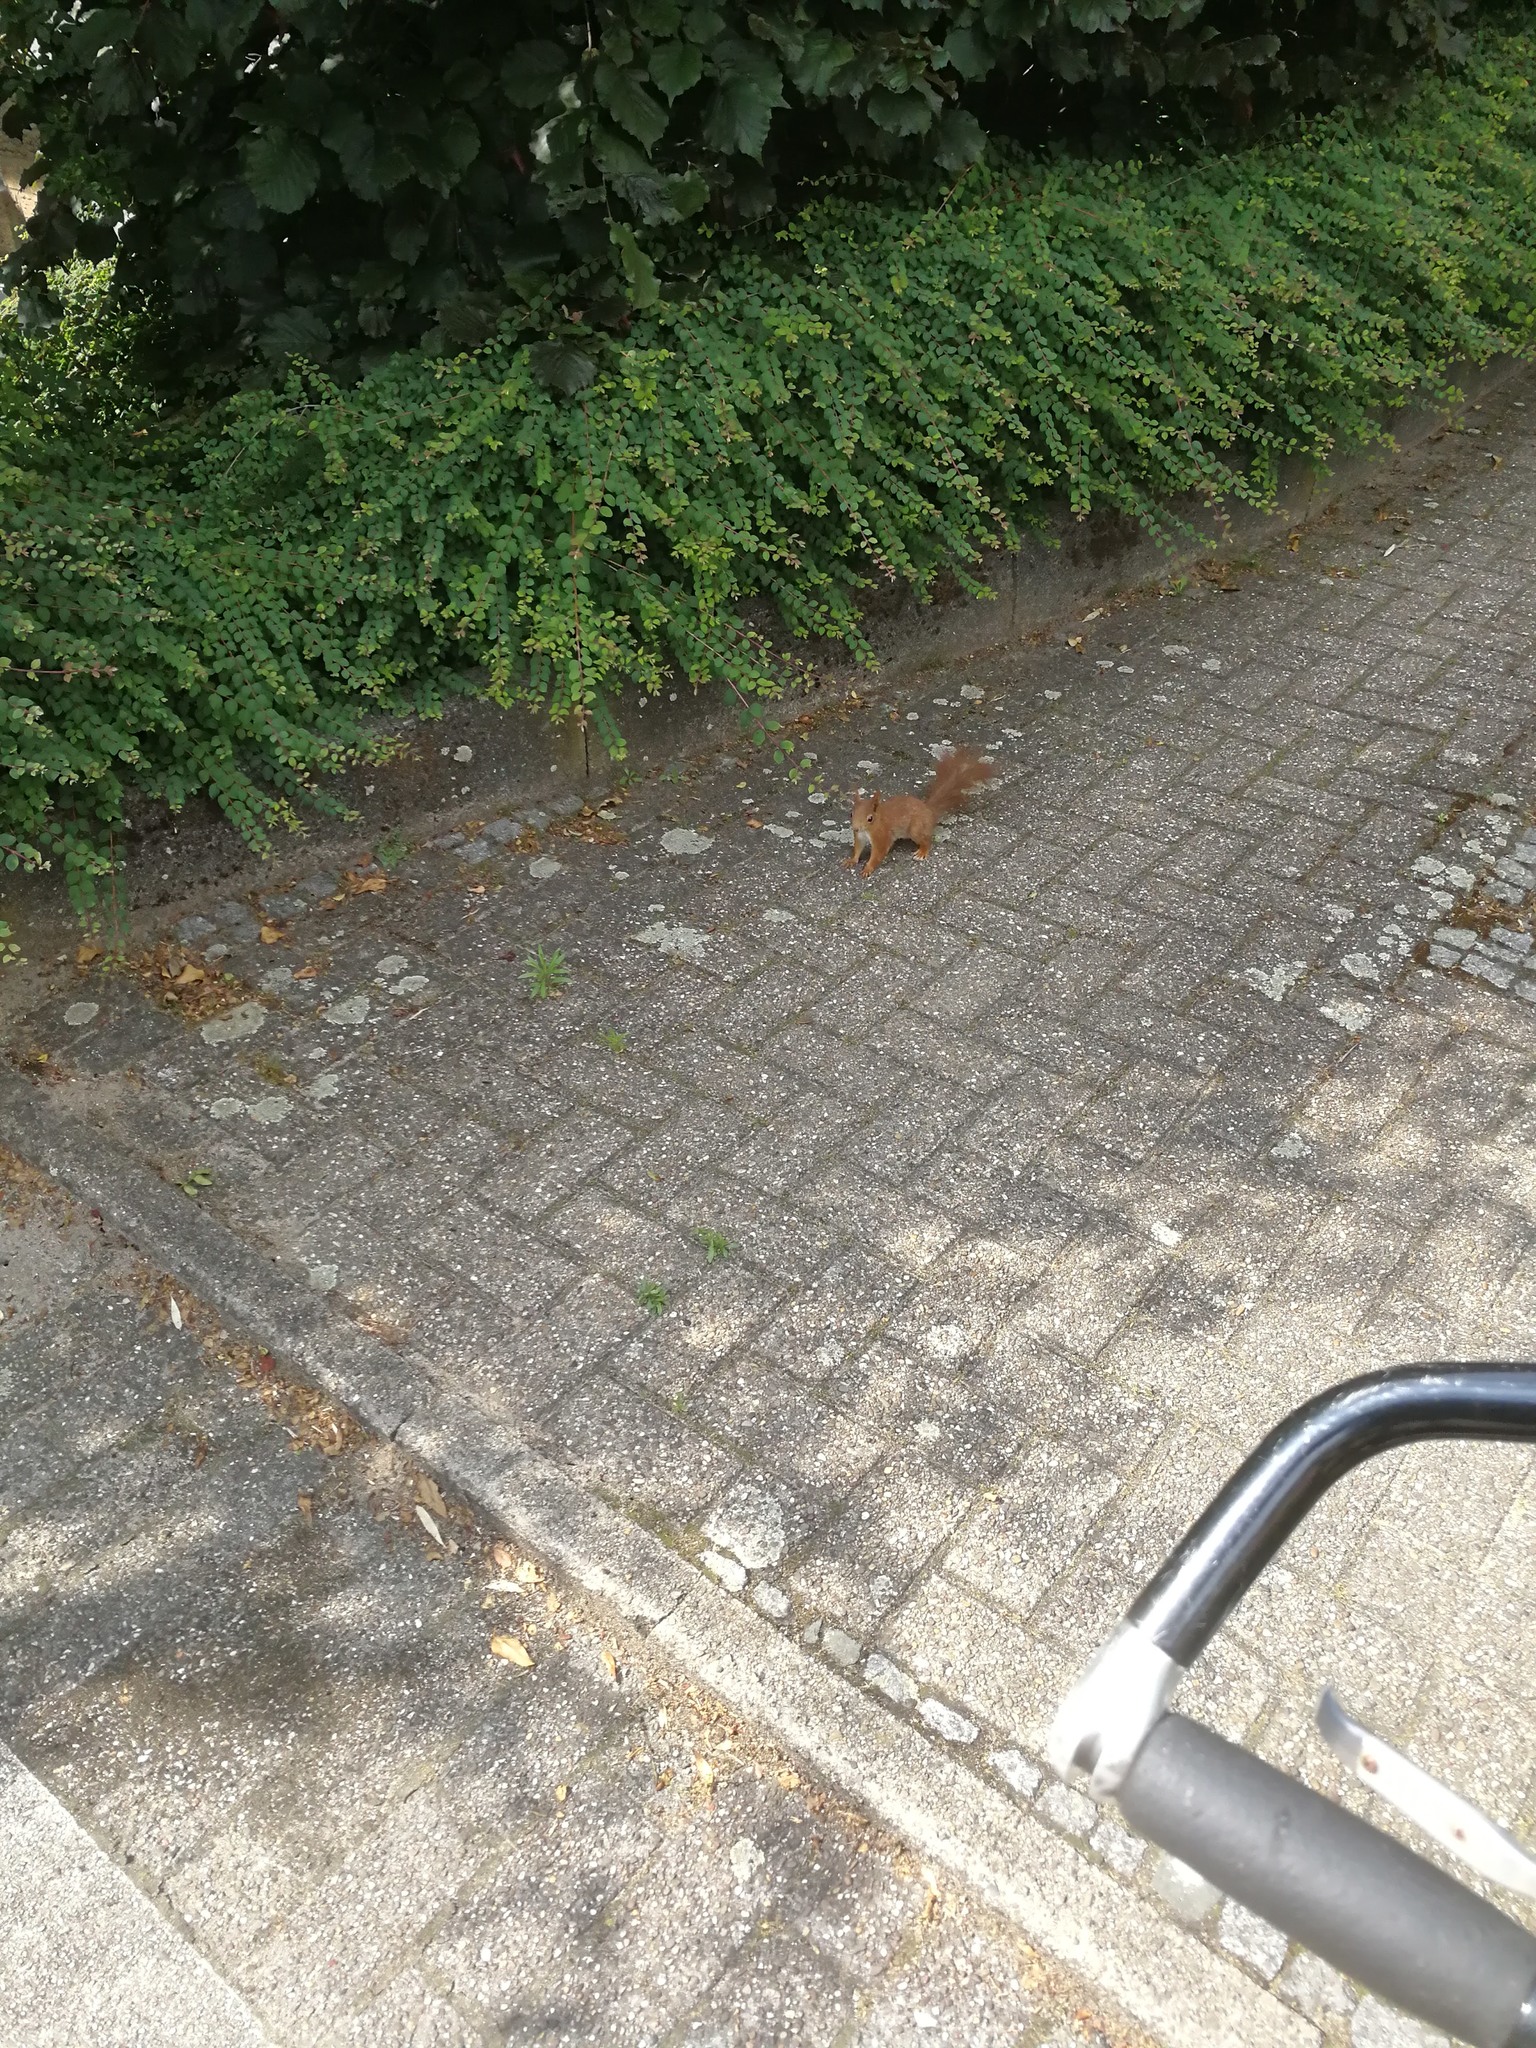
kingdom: Animalia
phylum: Chordata
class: Mammalia
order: Rodentia
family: Sciuridae
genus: Sciurus
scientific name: Sciurus vulgaris
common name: Eurasian red squirrel
